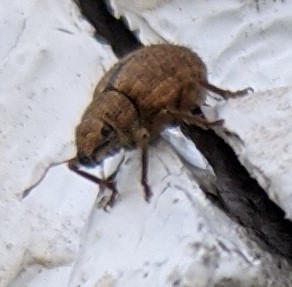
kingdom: Animalia
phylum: Arthropoda
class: Insecta
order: Coleoptera
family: Curculionidae
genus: Strophosoma
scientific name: Strophosoma melanogrammum
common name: Weevil
